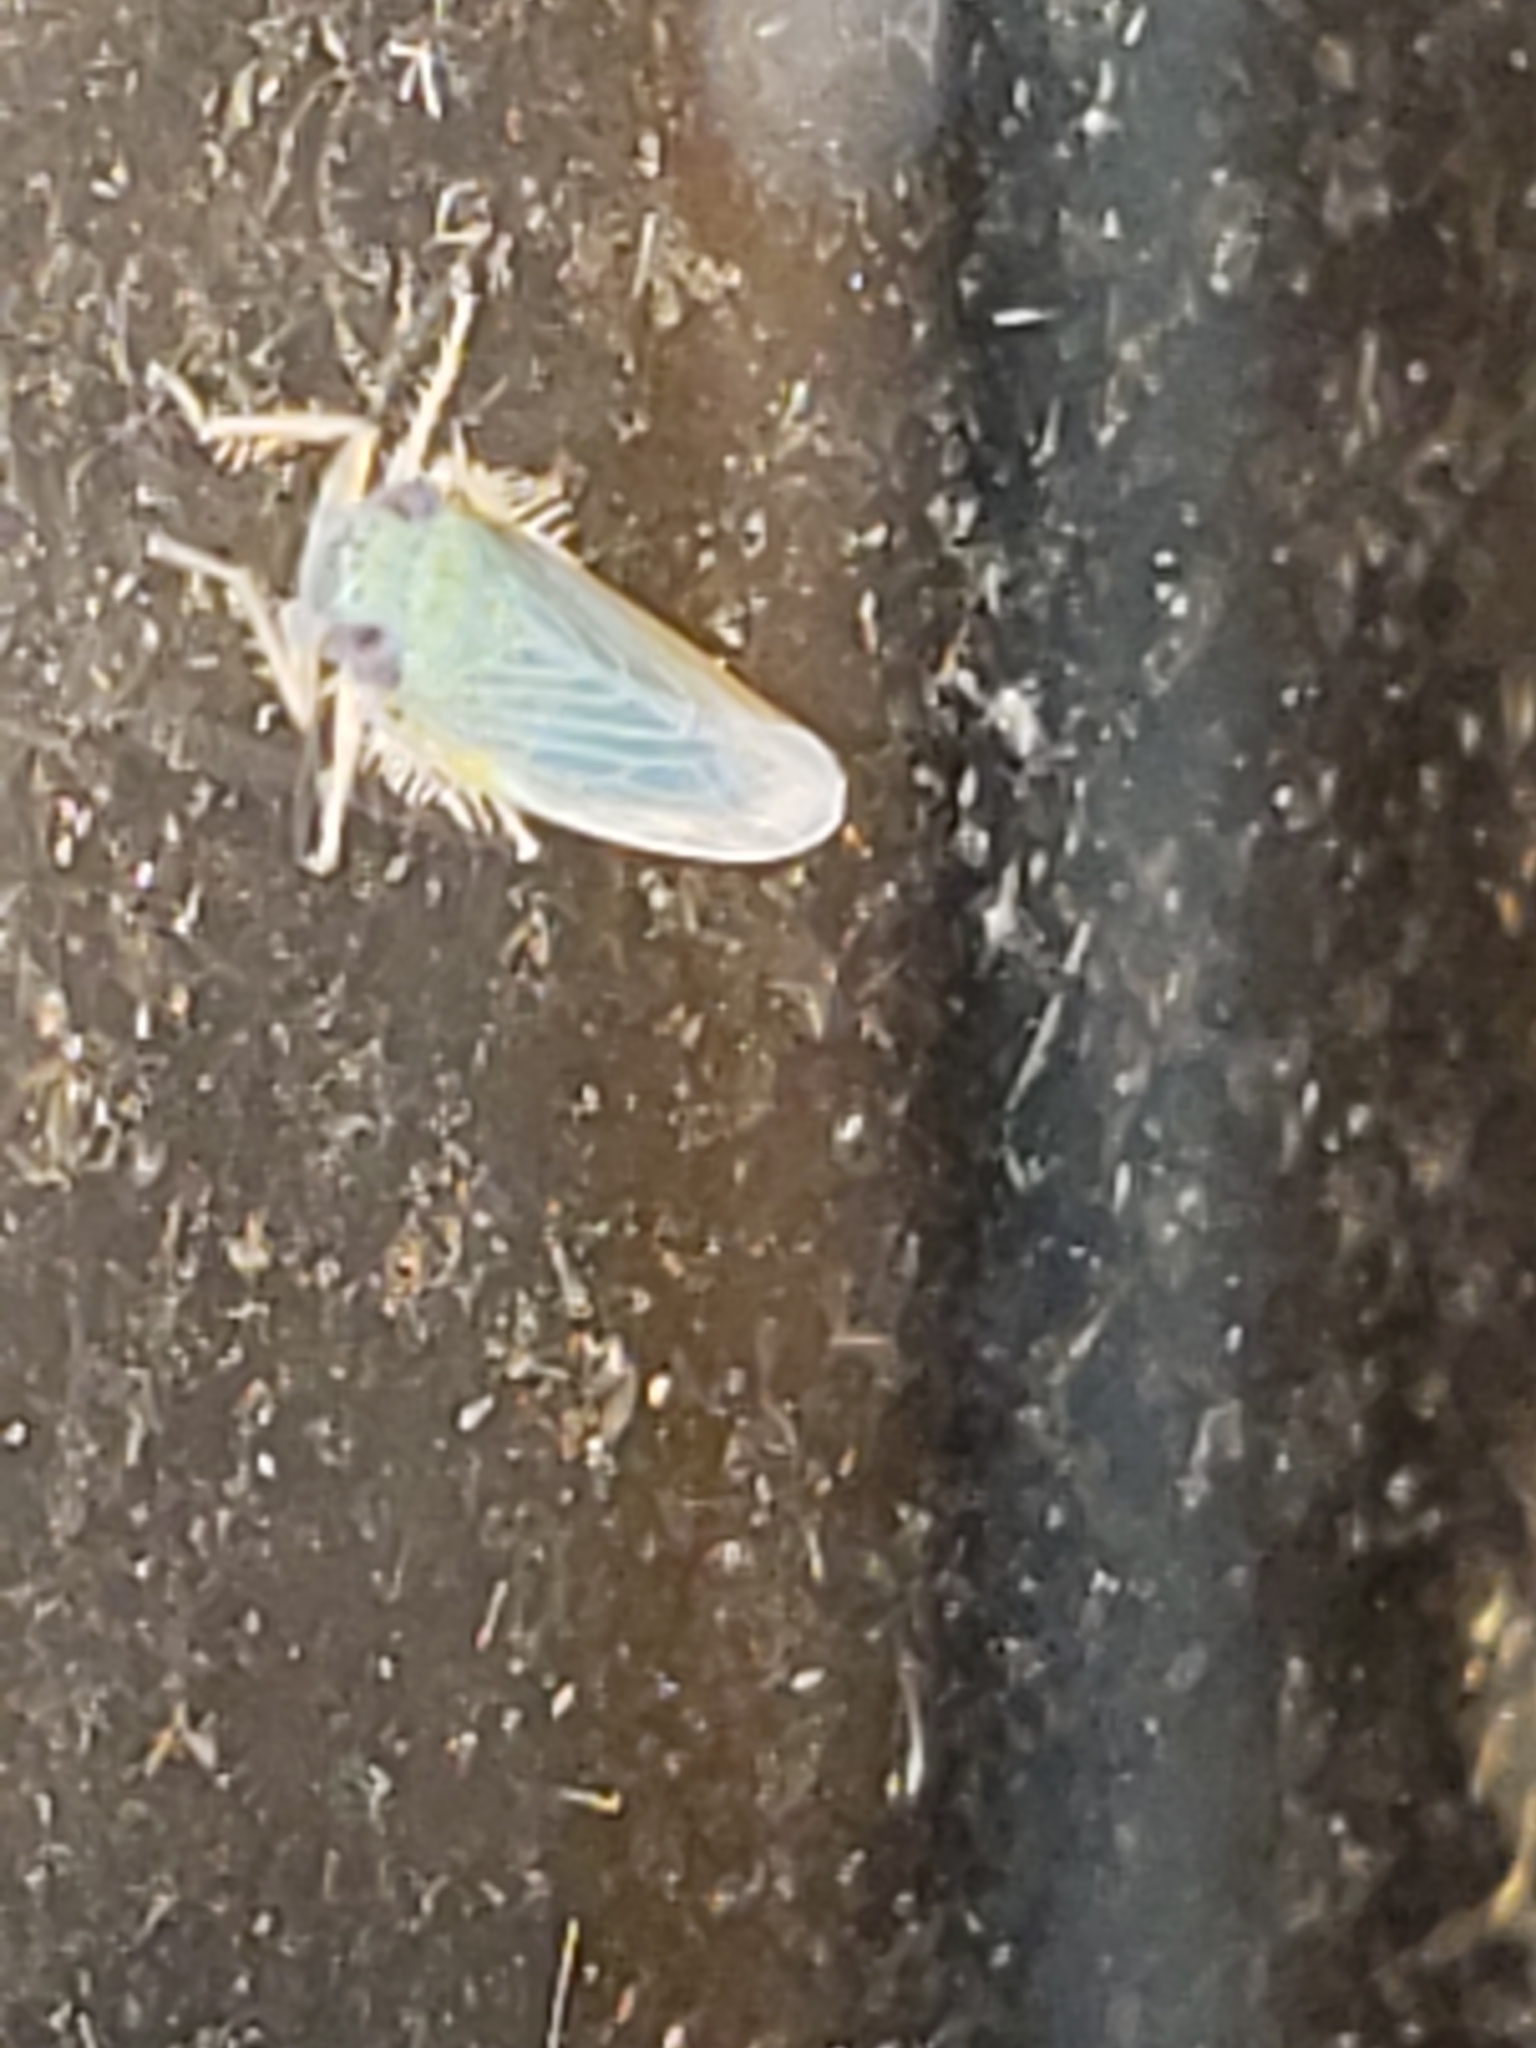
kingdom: Animalia
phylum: Arthropoda
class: Insecta
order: Hemiptera
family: Cicadellidae
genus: Graminella
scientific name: Graminella nigrifrons
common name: Blackfaced leafhopper
